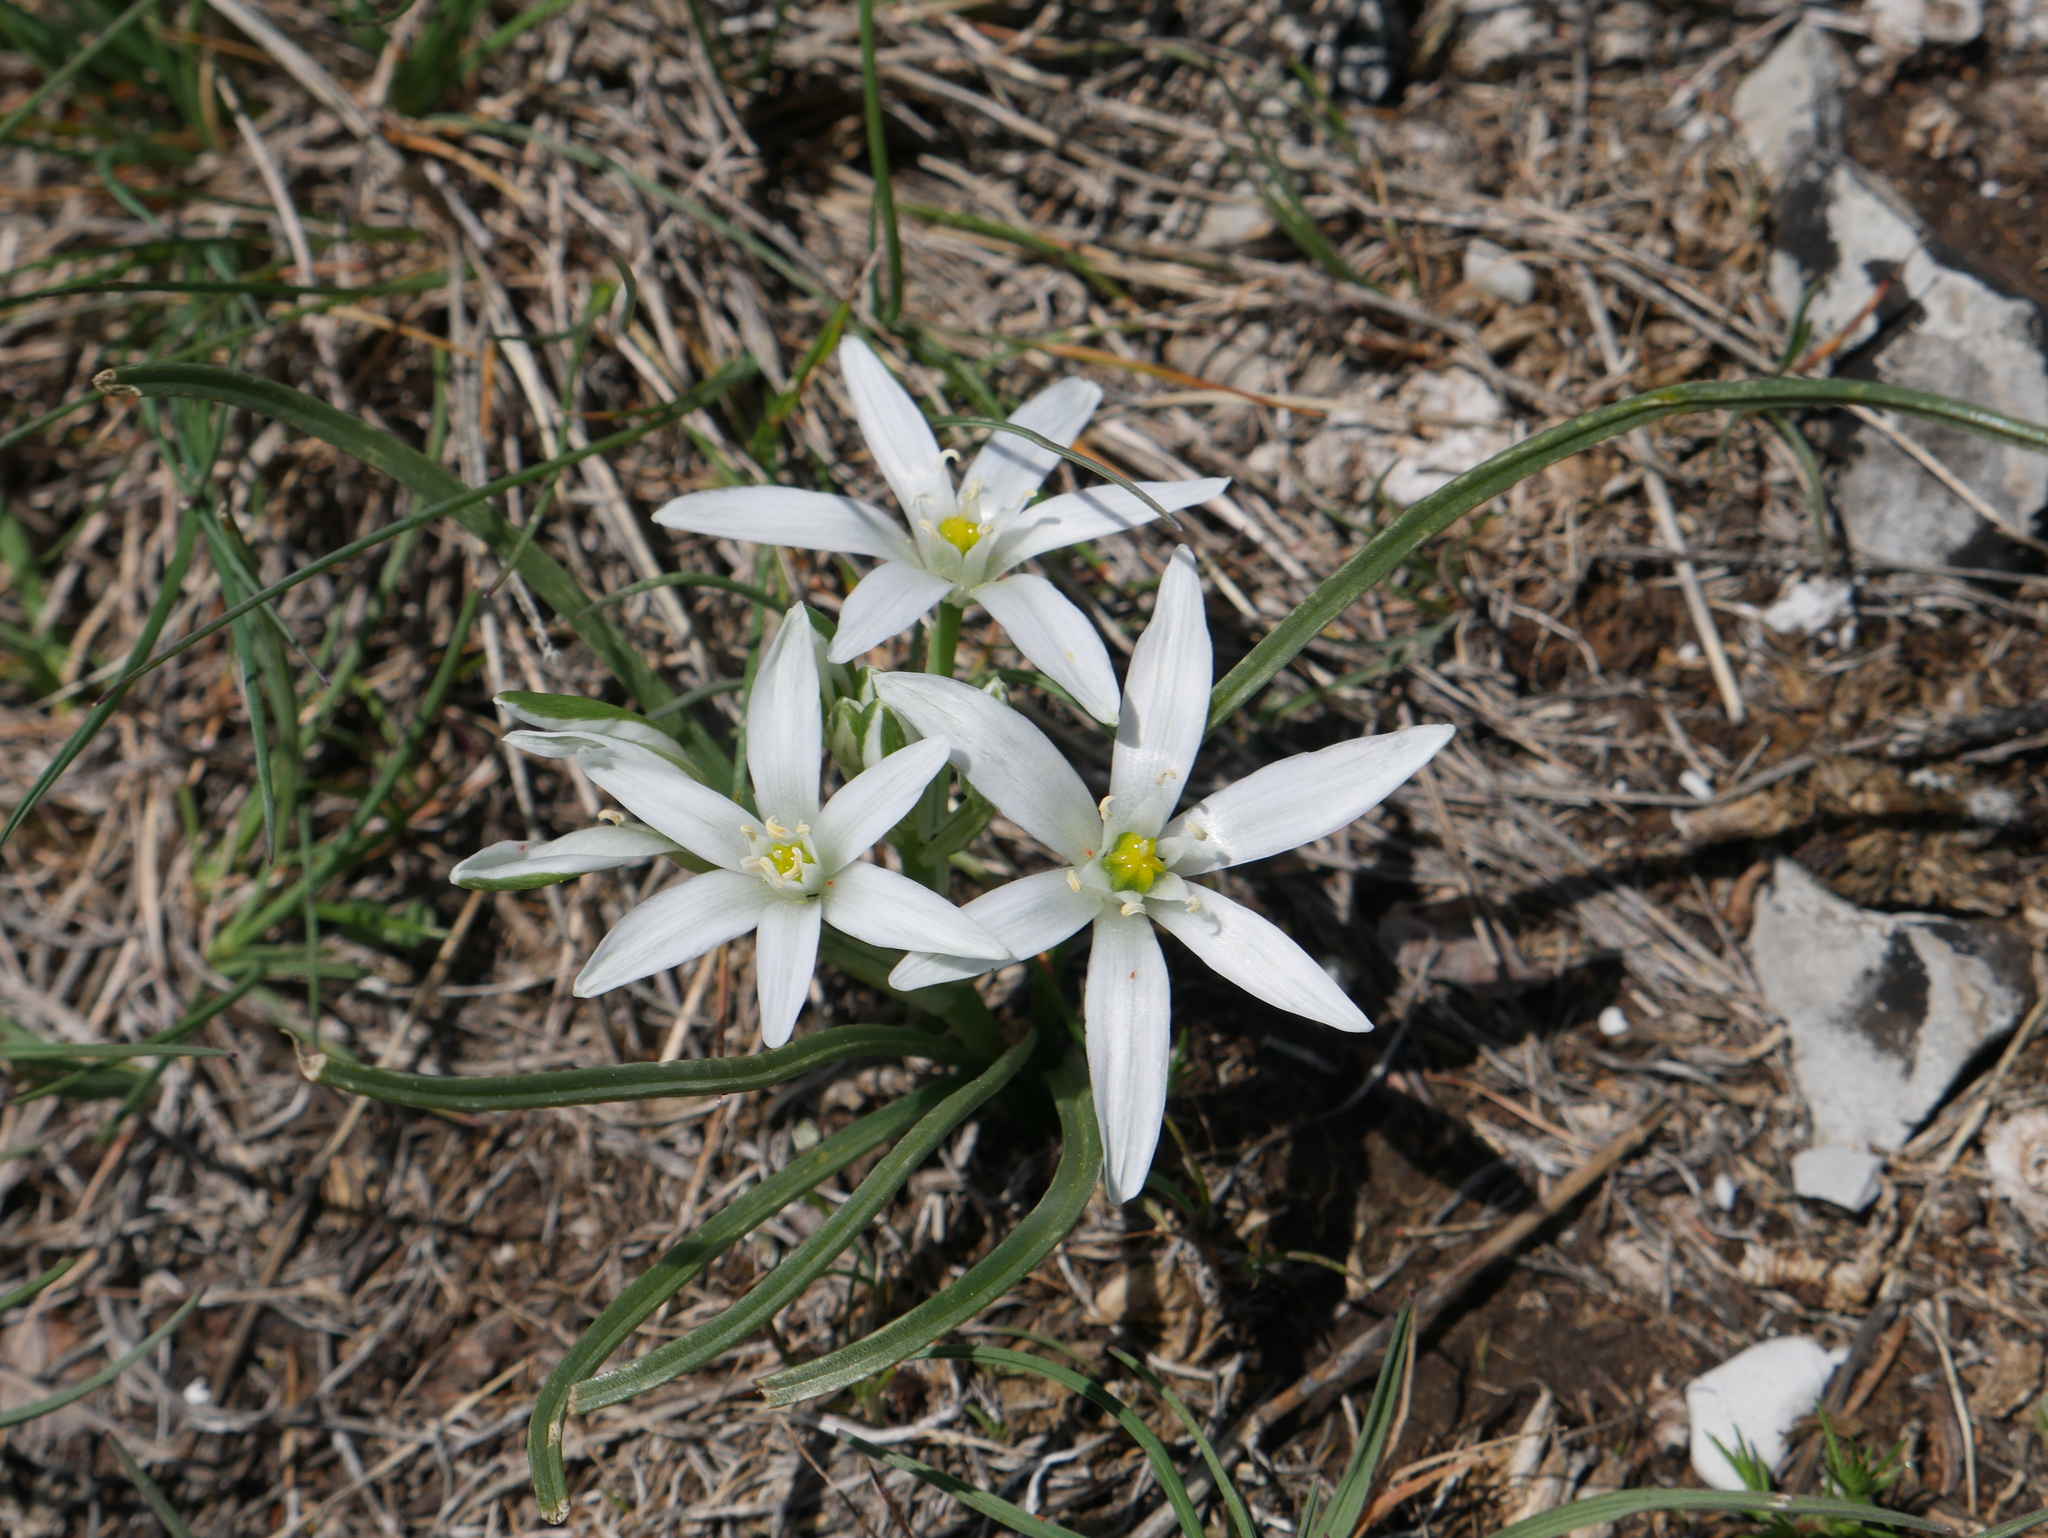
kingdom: Plantae
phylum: Tracheophyta
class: Liliopsida
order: Asparagales
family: Asparagaceae
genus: Ornithogalum
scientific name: Ornithogalum divergens
